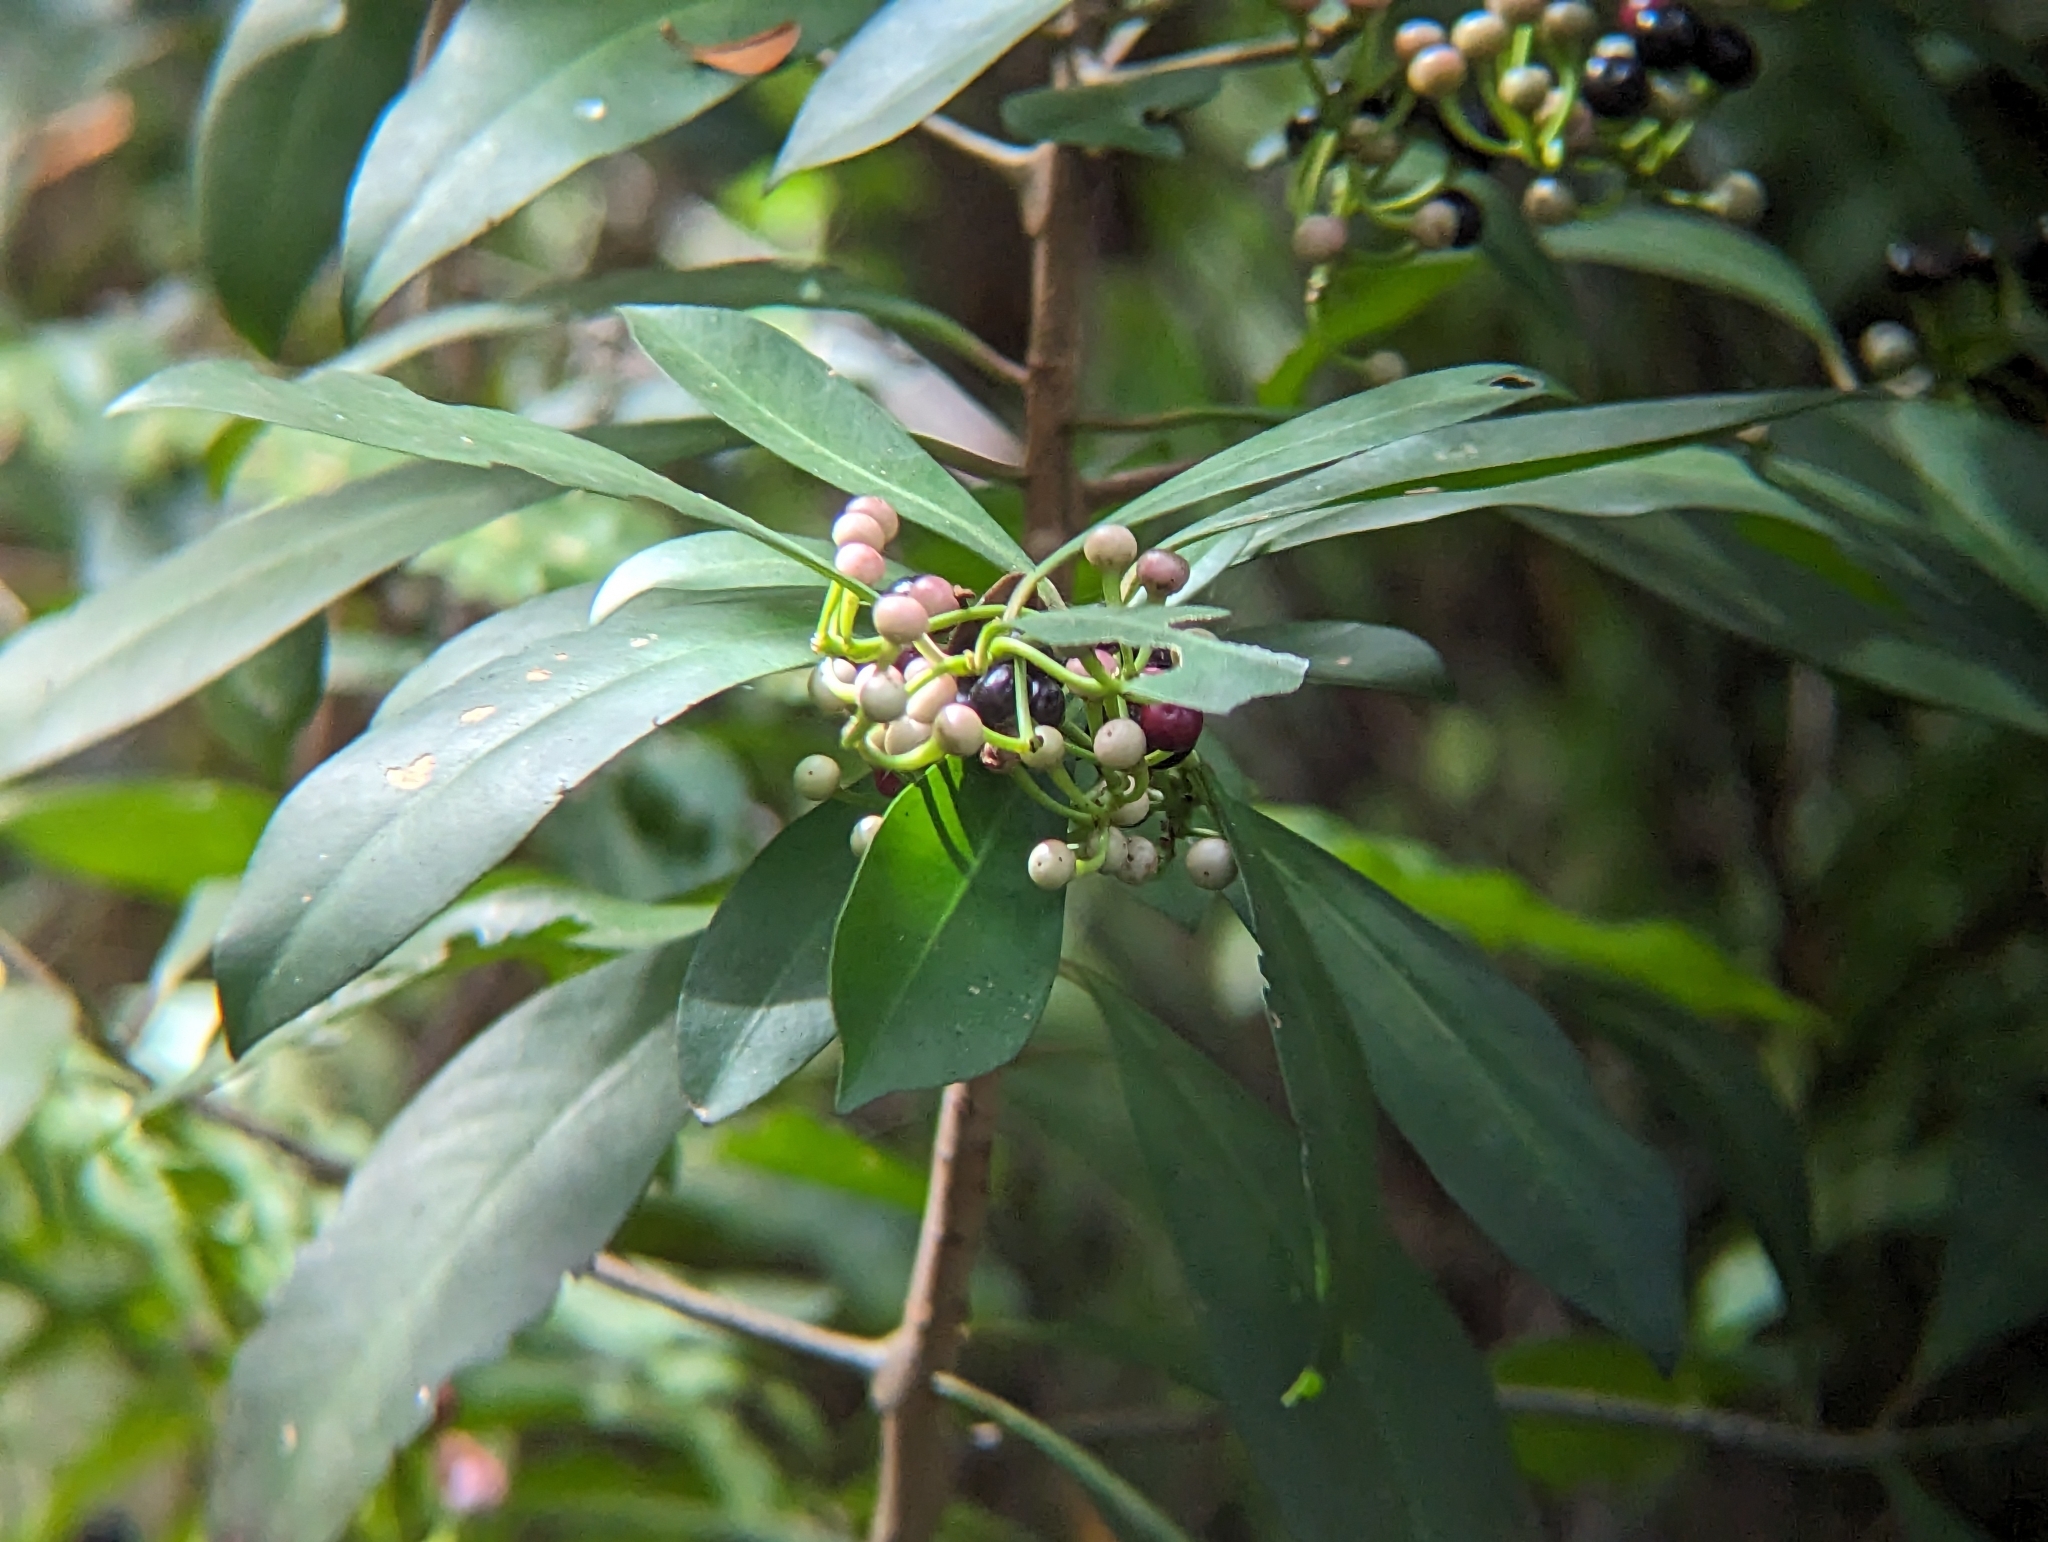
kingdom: Plantae
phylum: Tracheophyta
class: Magnoliopsida
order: Ericales
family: Primulaceae
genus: Ardisia
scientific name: Ardisia elliptica
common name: Shoebutton
